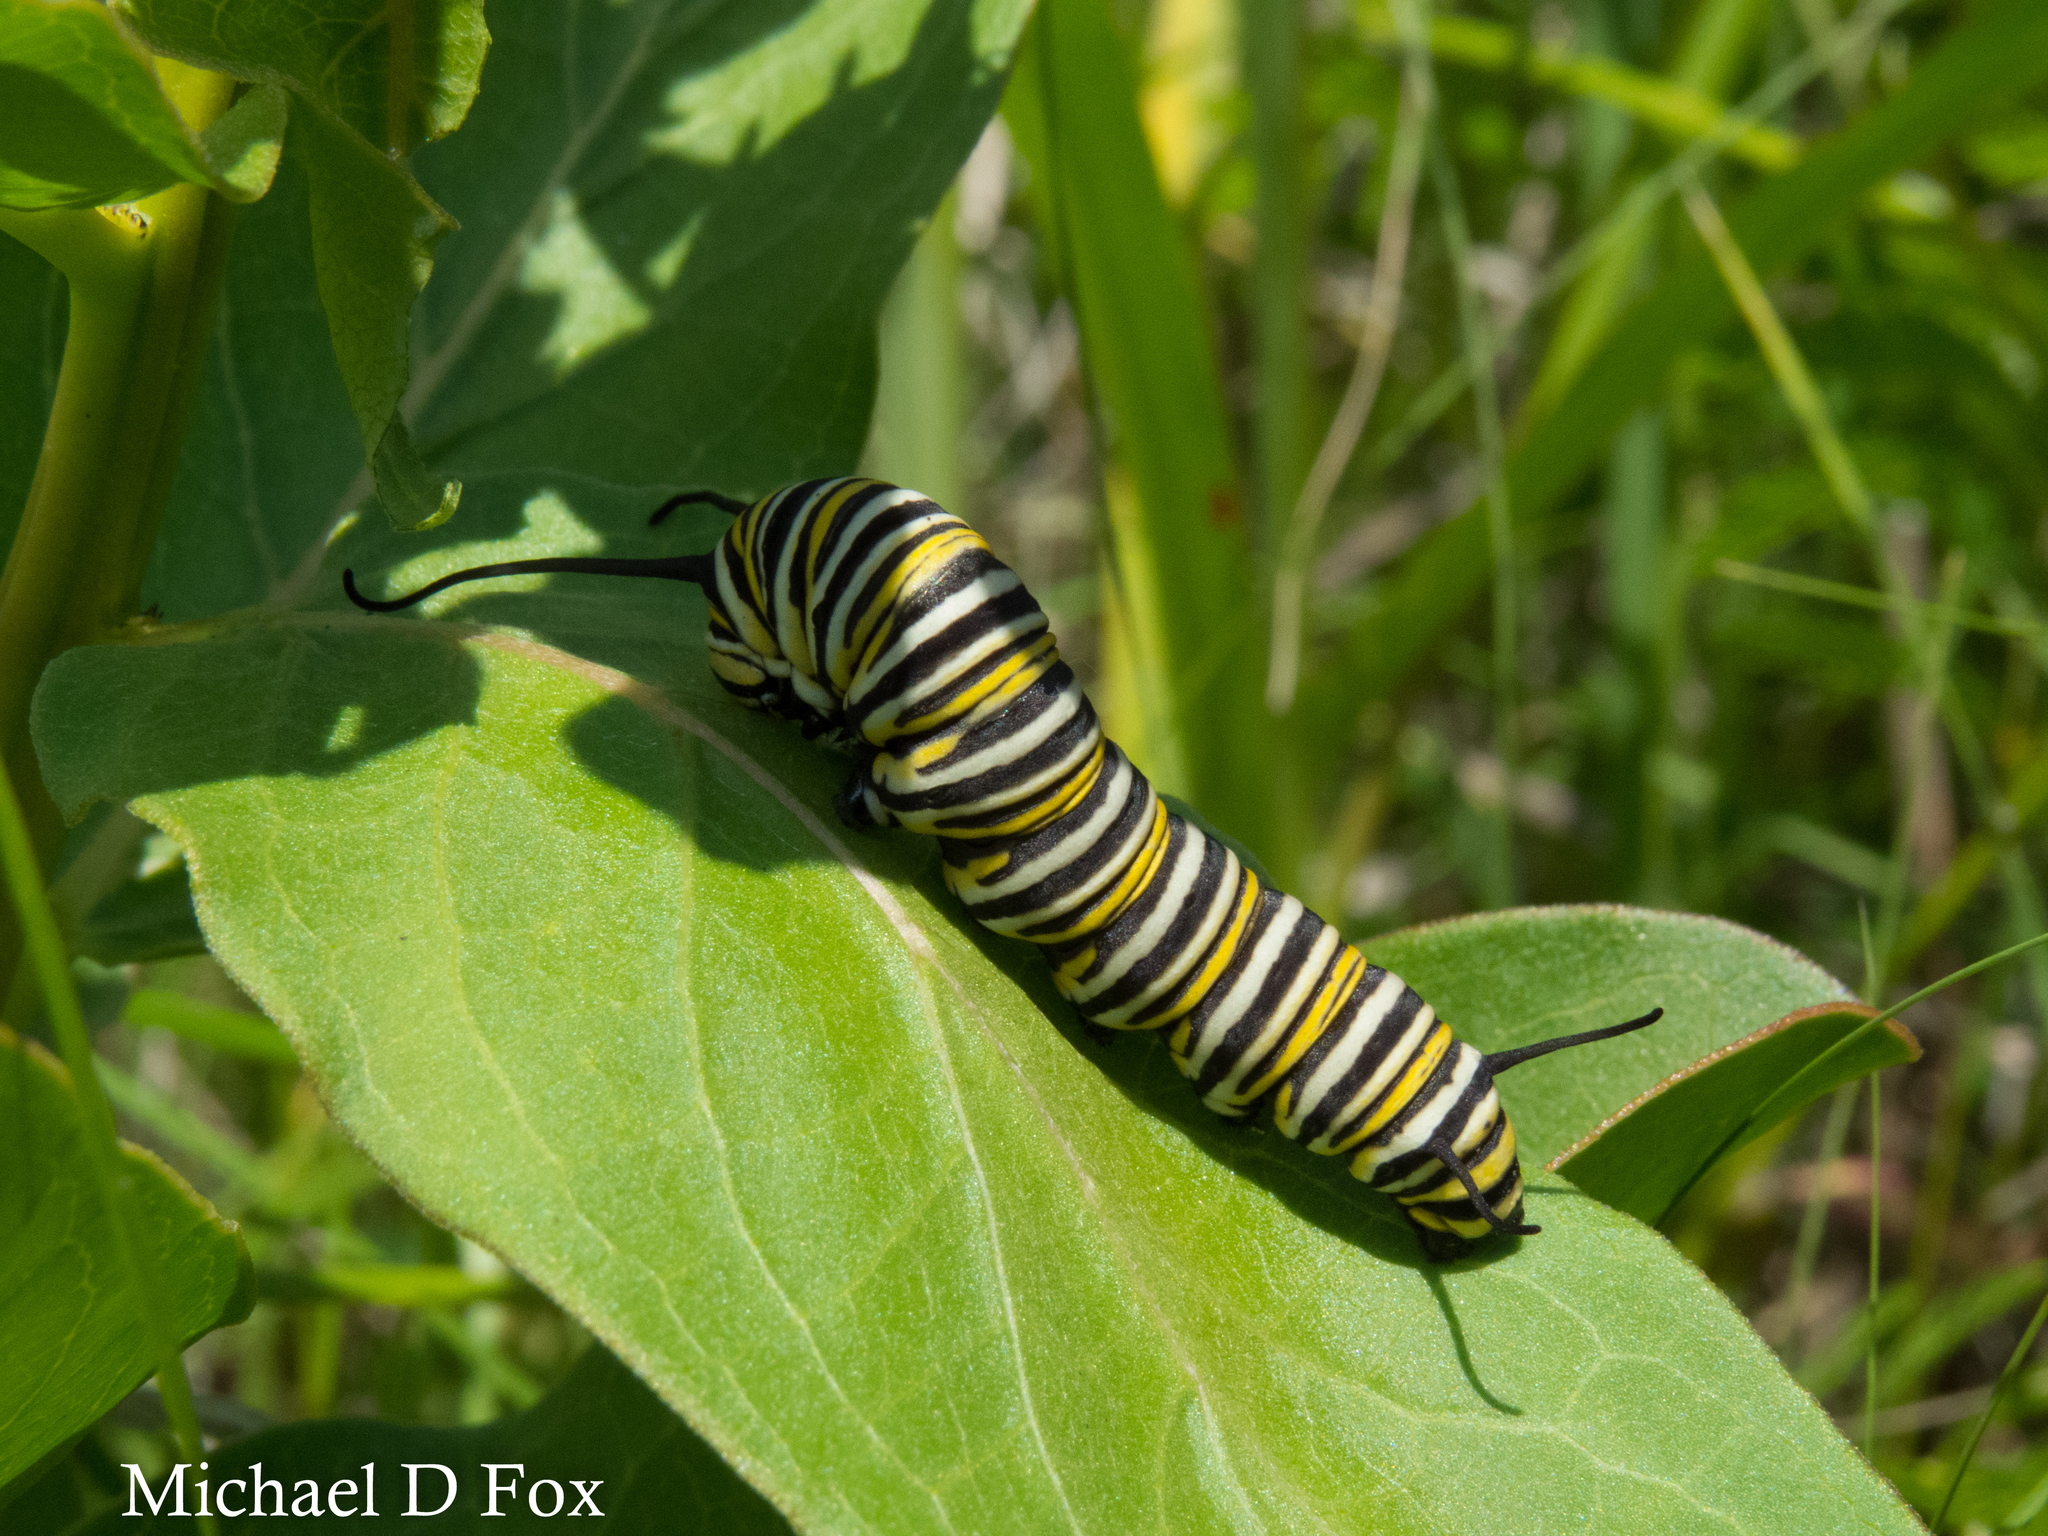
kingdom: Animalia
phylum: Arthropoda
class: Insecta
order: Lepidoptera
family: Nymphalidae
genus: Danaus
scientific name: Danaus plexippus
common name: Monarch
